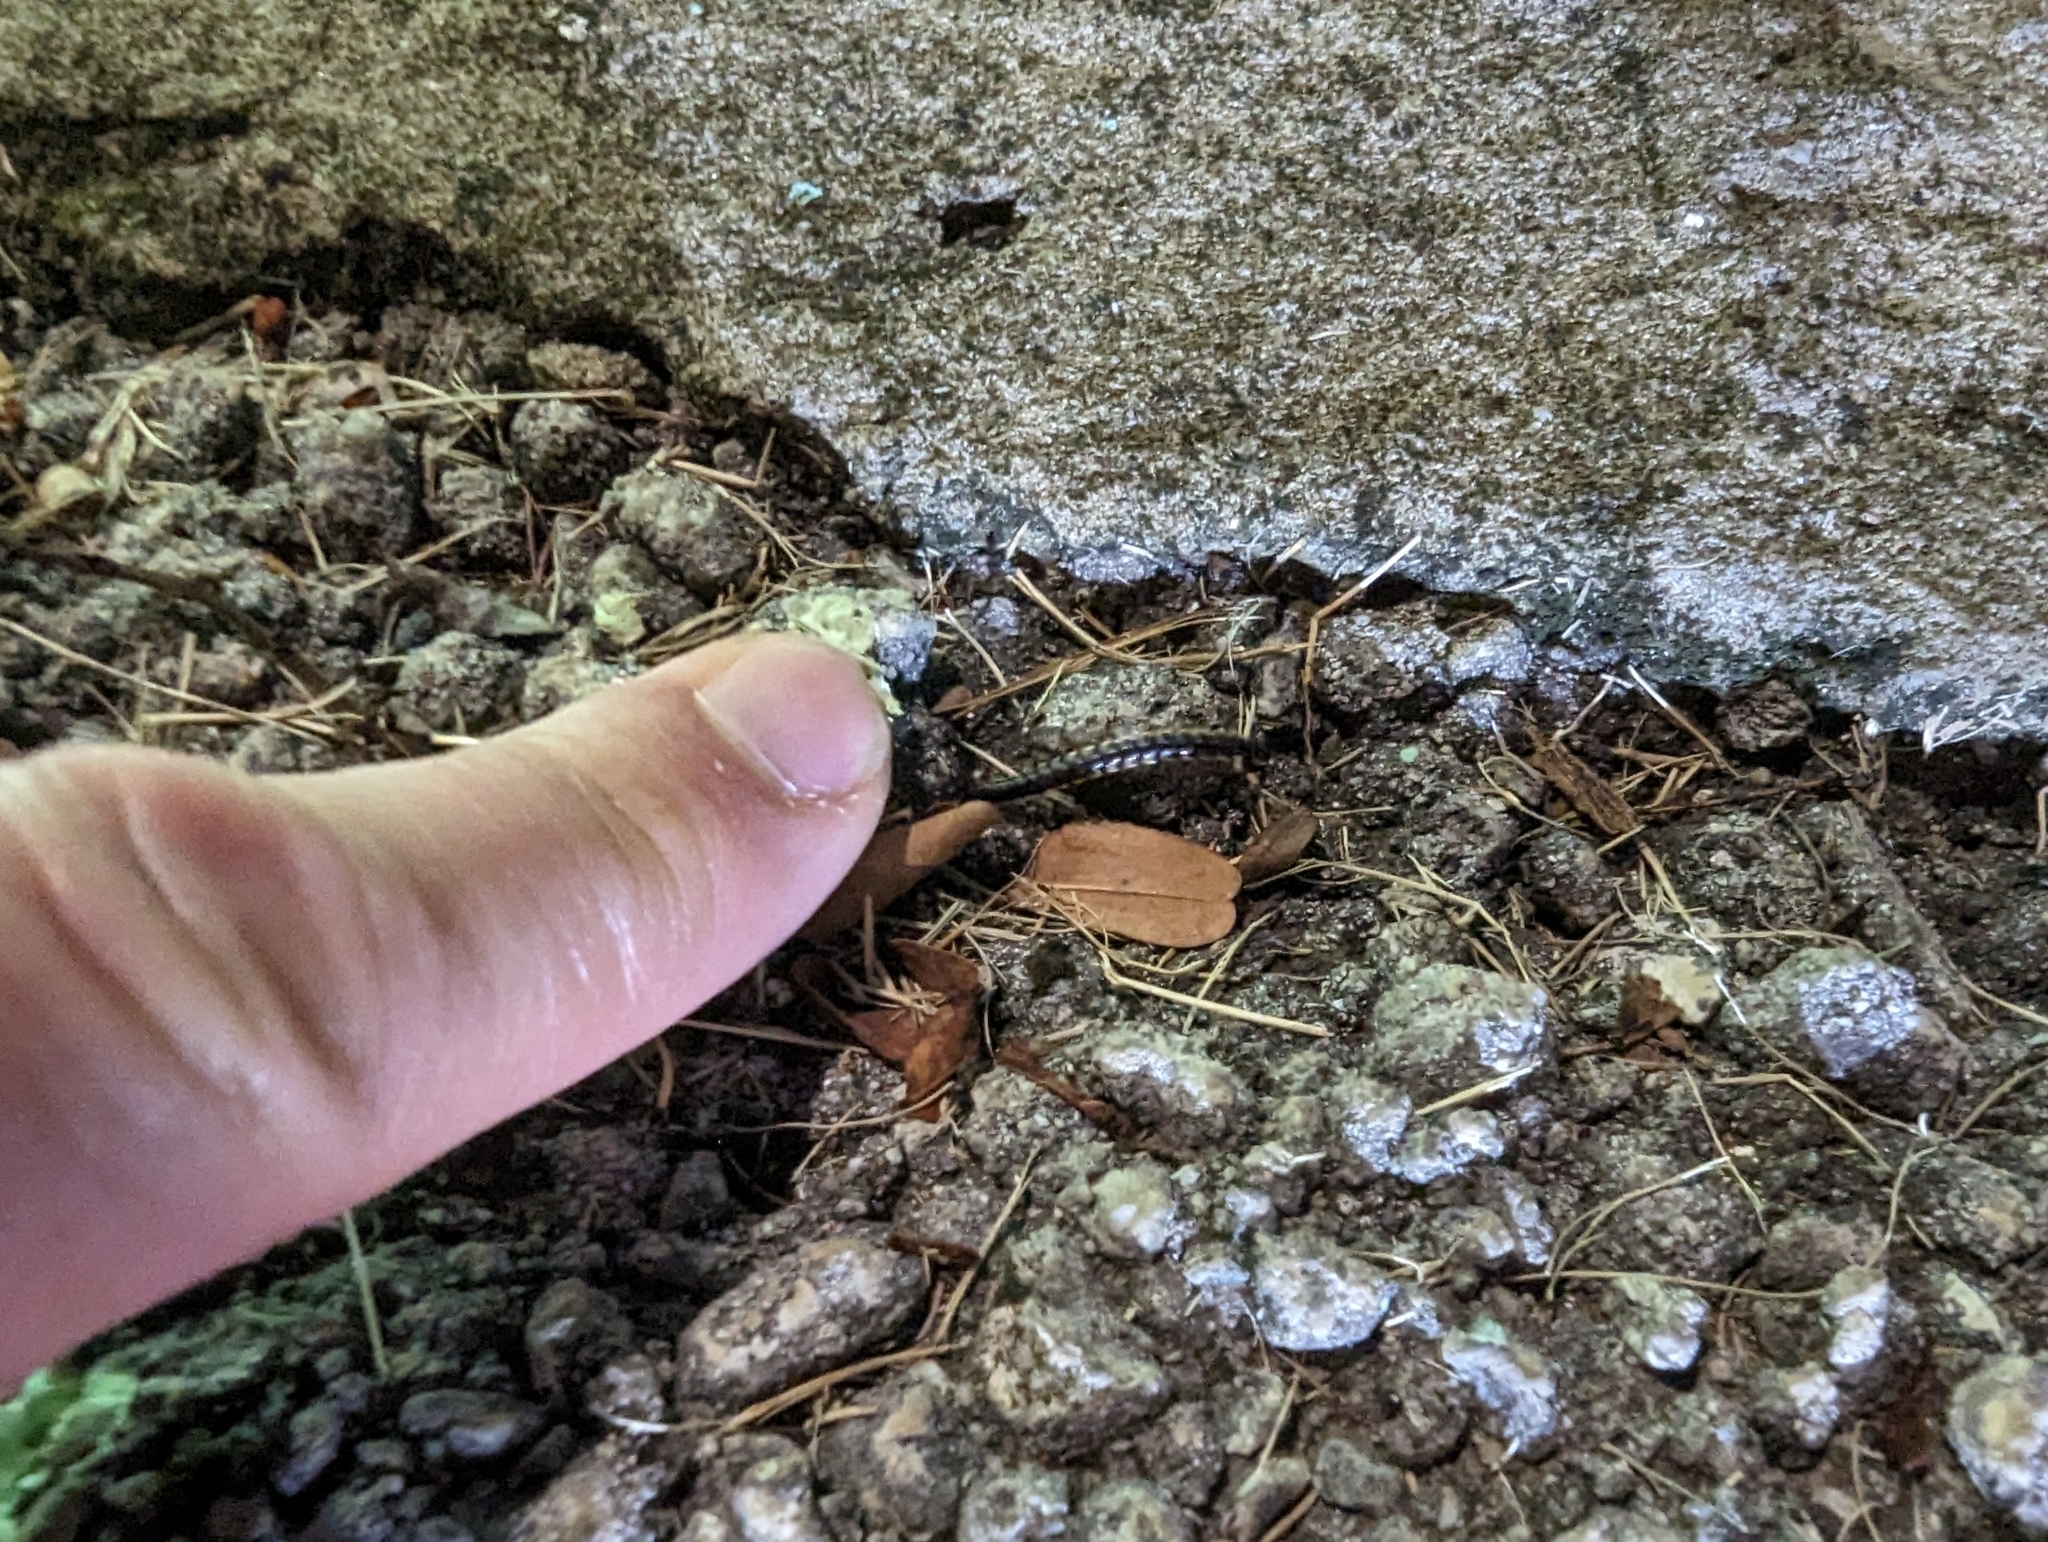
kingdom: Animalia
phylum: Arthropoda
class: Diplopoda
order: Polydesmida
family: Paradoxosomatidae
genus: Orthomorpha
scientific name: Orthomorpha coarctata
